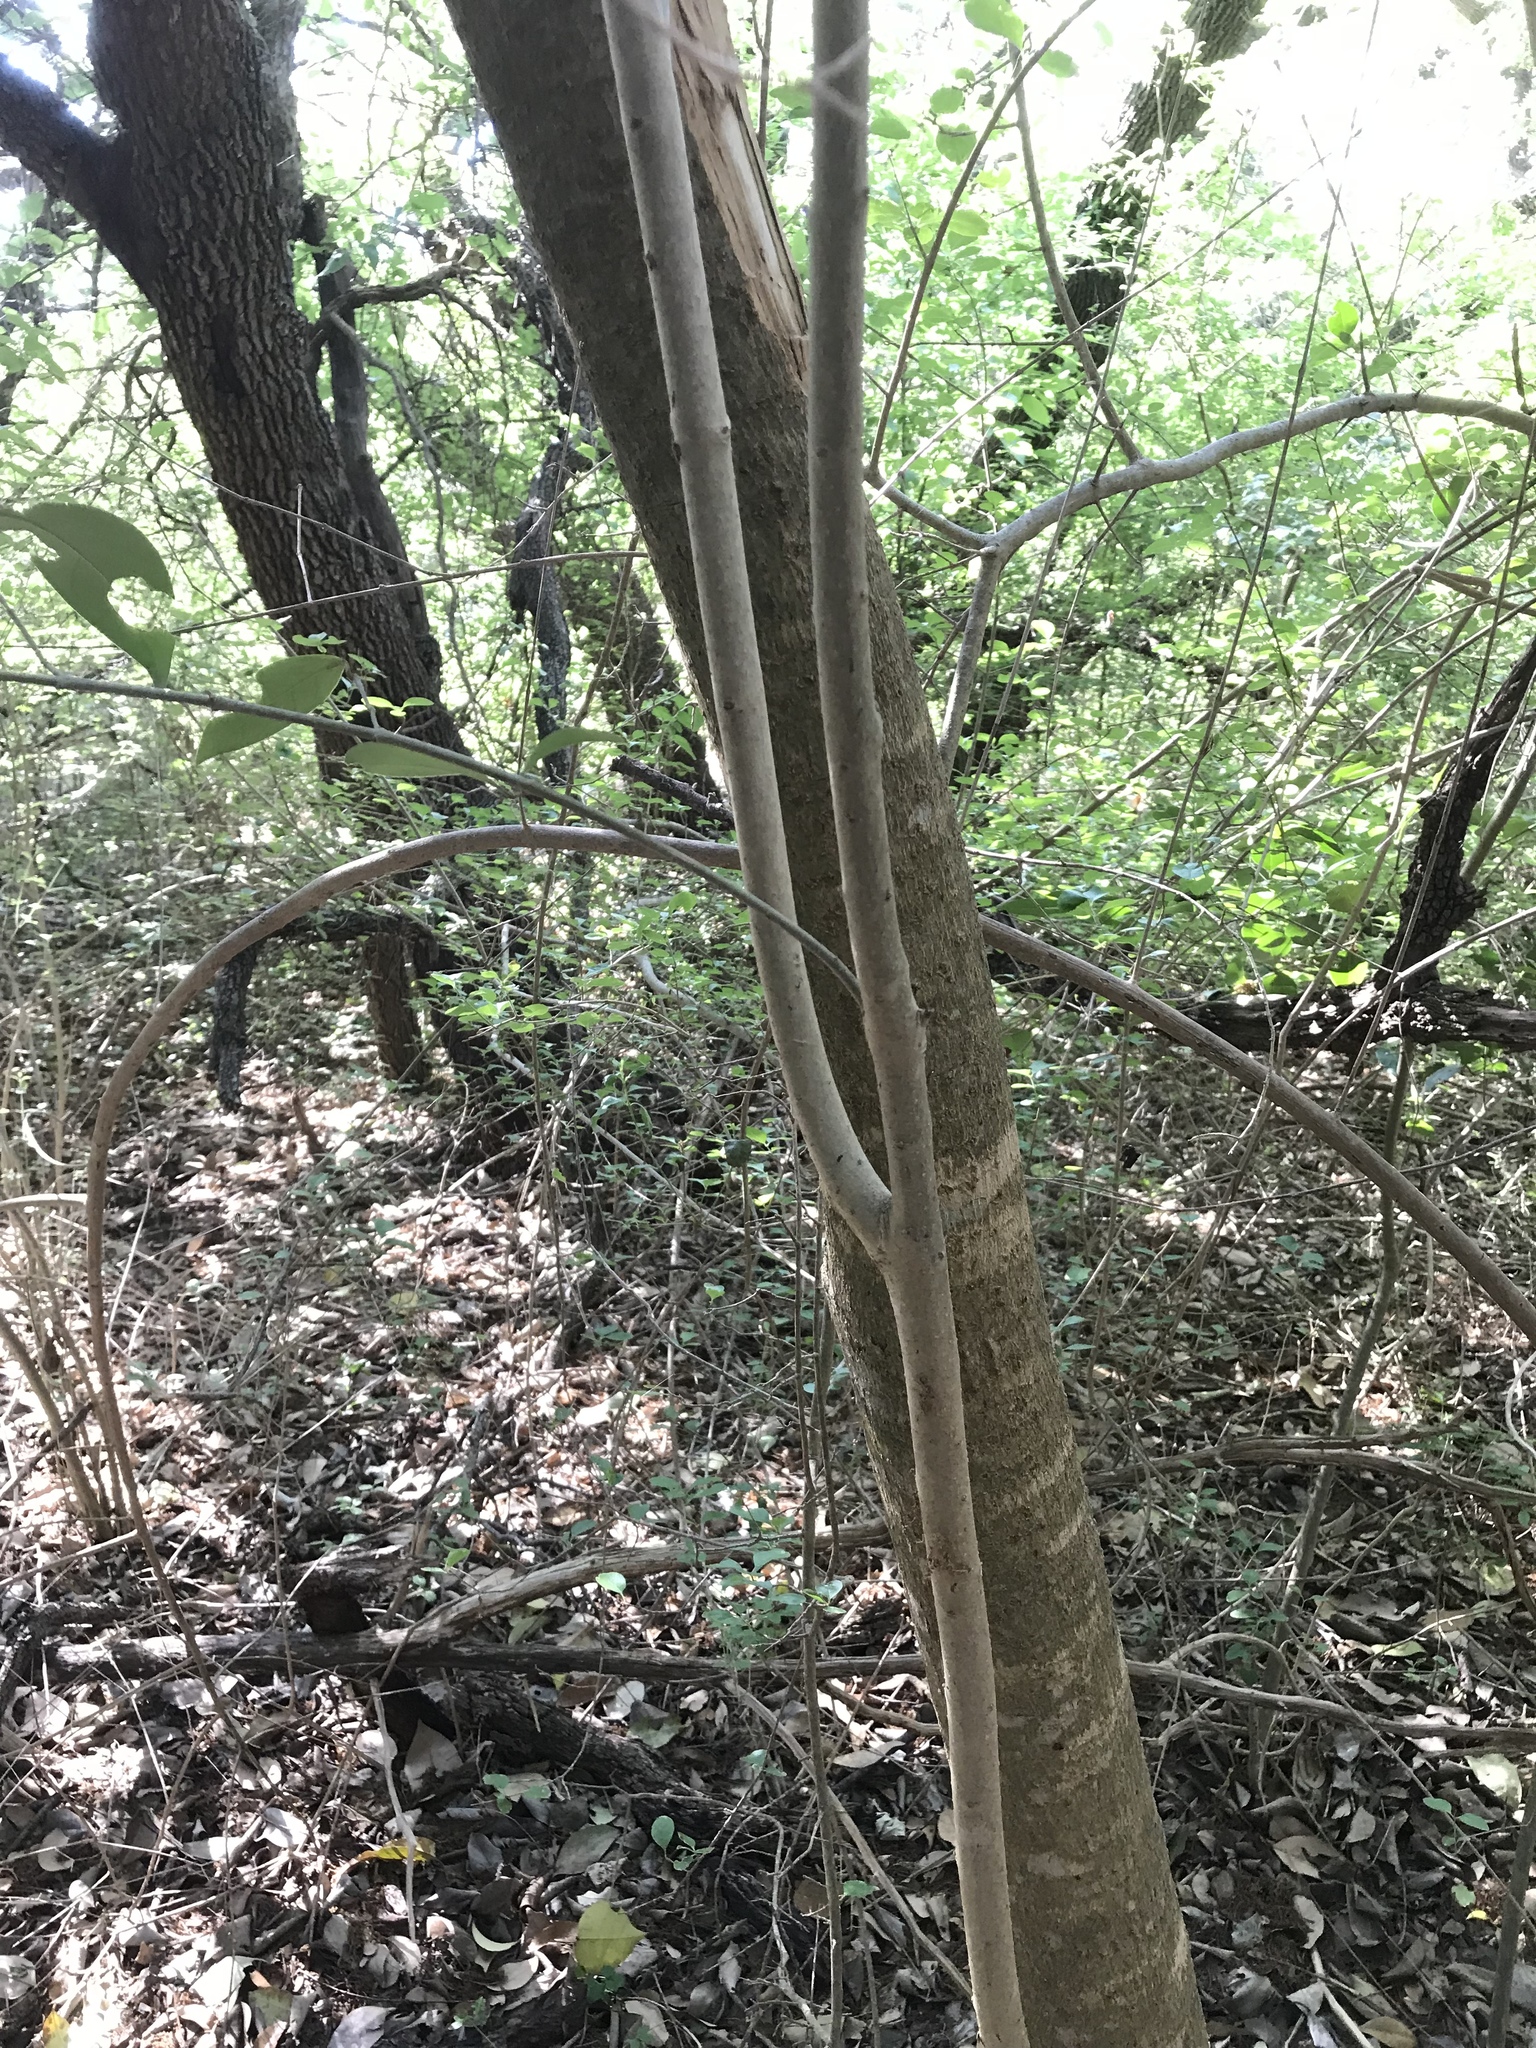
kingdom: Plantae
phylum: Tracheophyta
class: Magnoliopsida
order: Lamiales
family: Oleaceae
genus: Ligustrum
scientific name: Ligustrum lucidum
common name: Glossy privet
